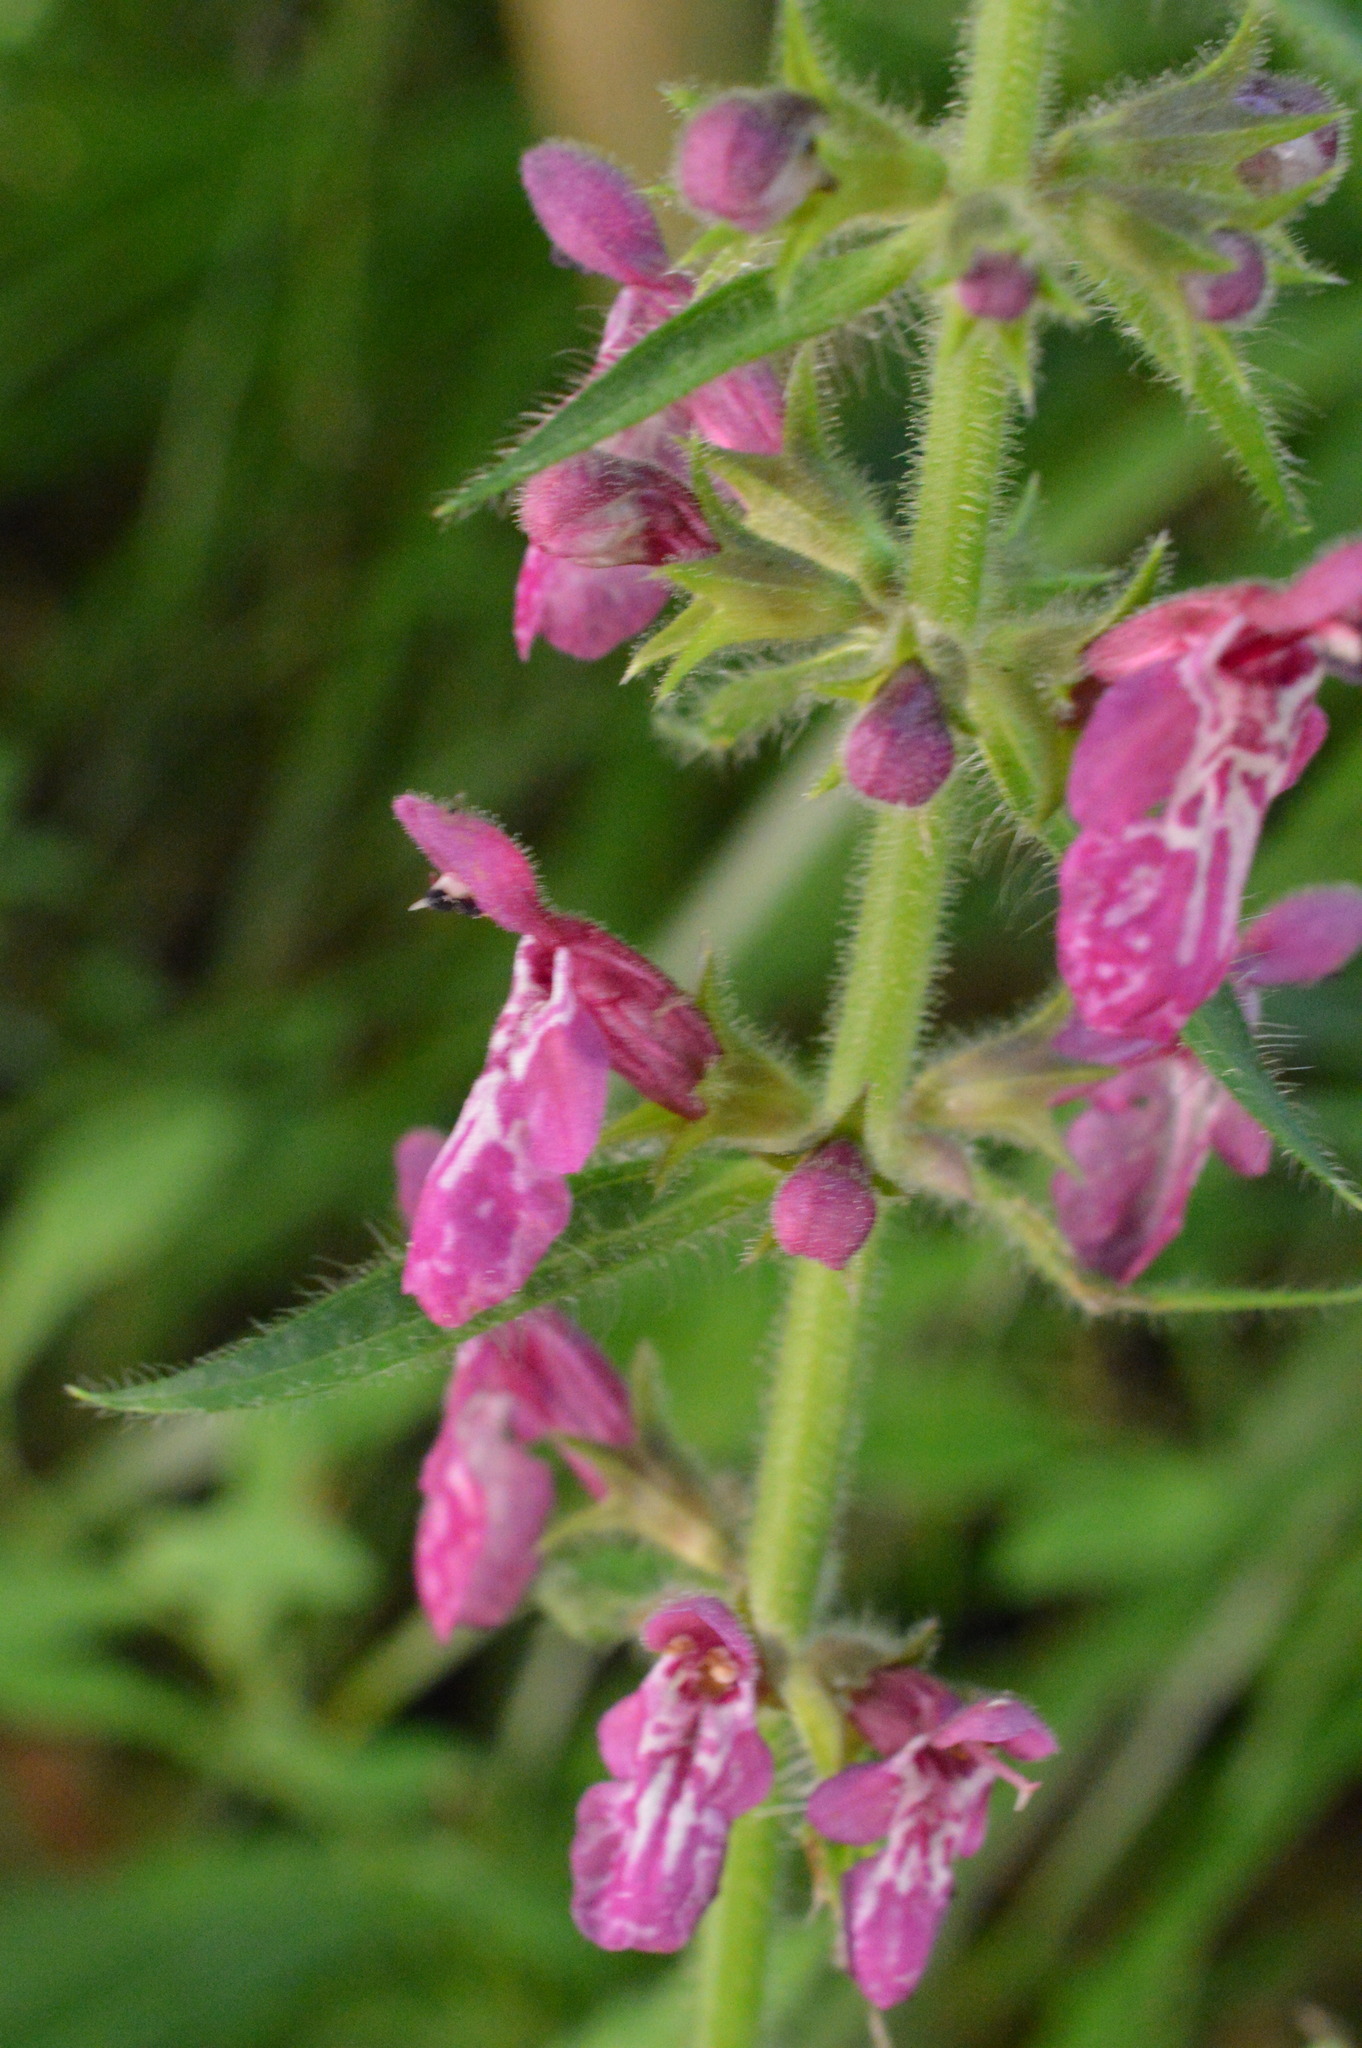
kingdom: Plantae
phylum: Tracheophyta
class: Magnoliopsida
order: Lamiales
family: Lamiaceae
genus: Stachys
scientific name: Stachys sylvatica
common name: Hedge woundwort
